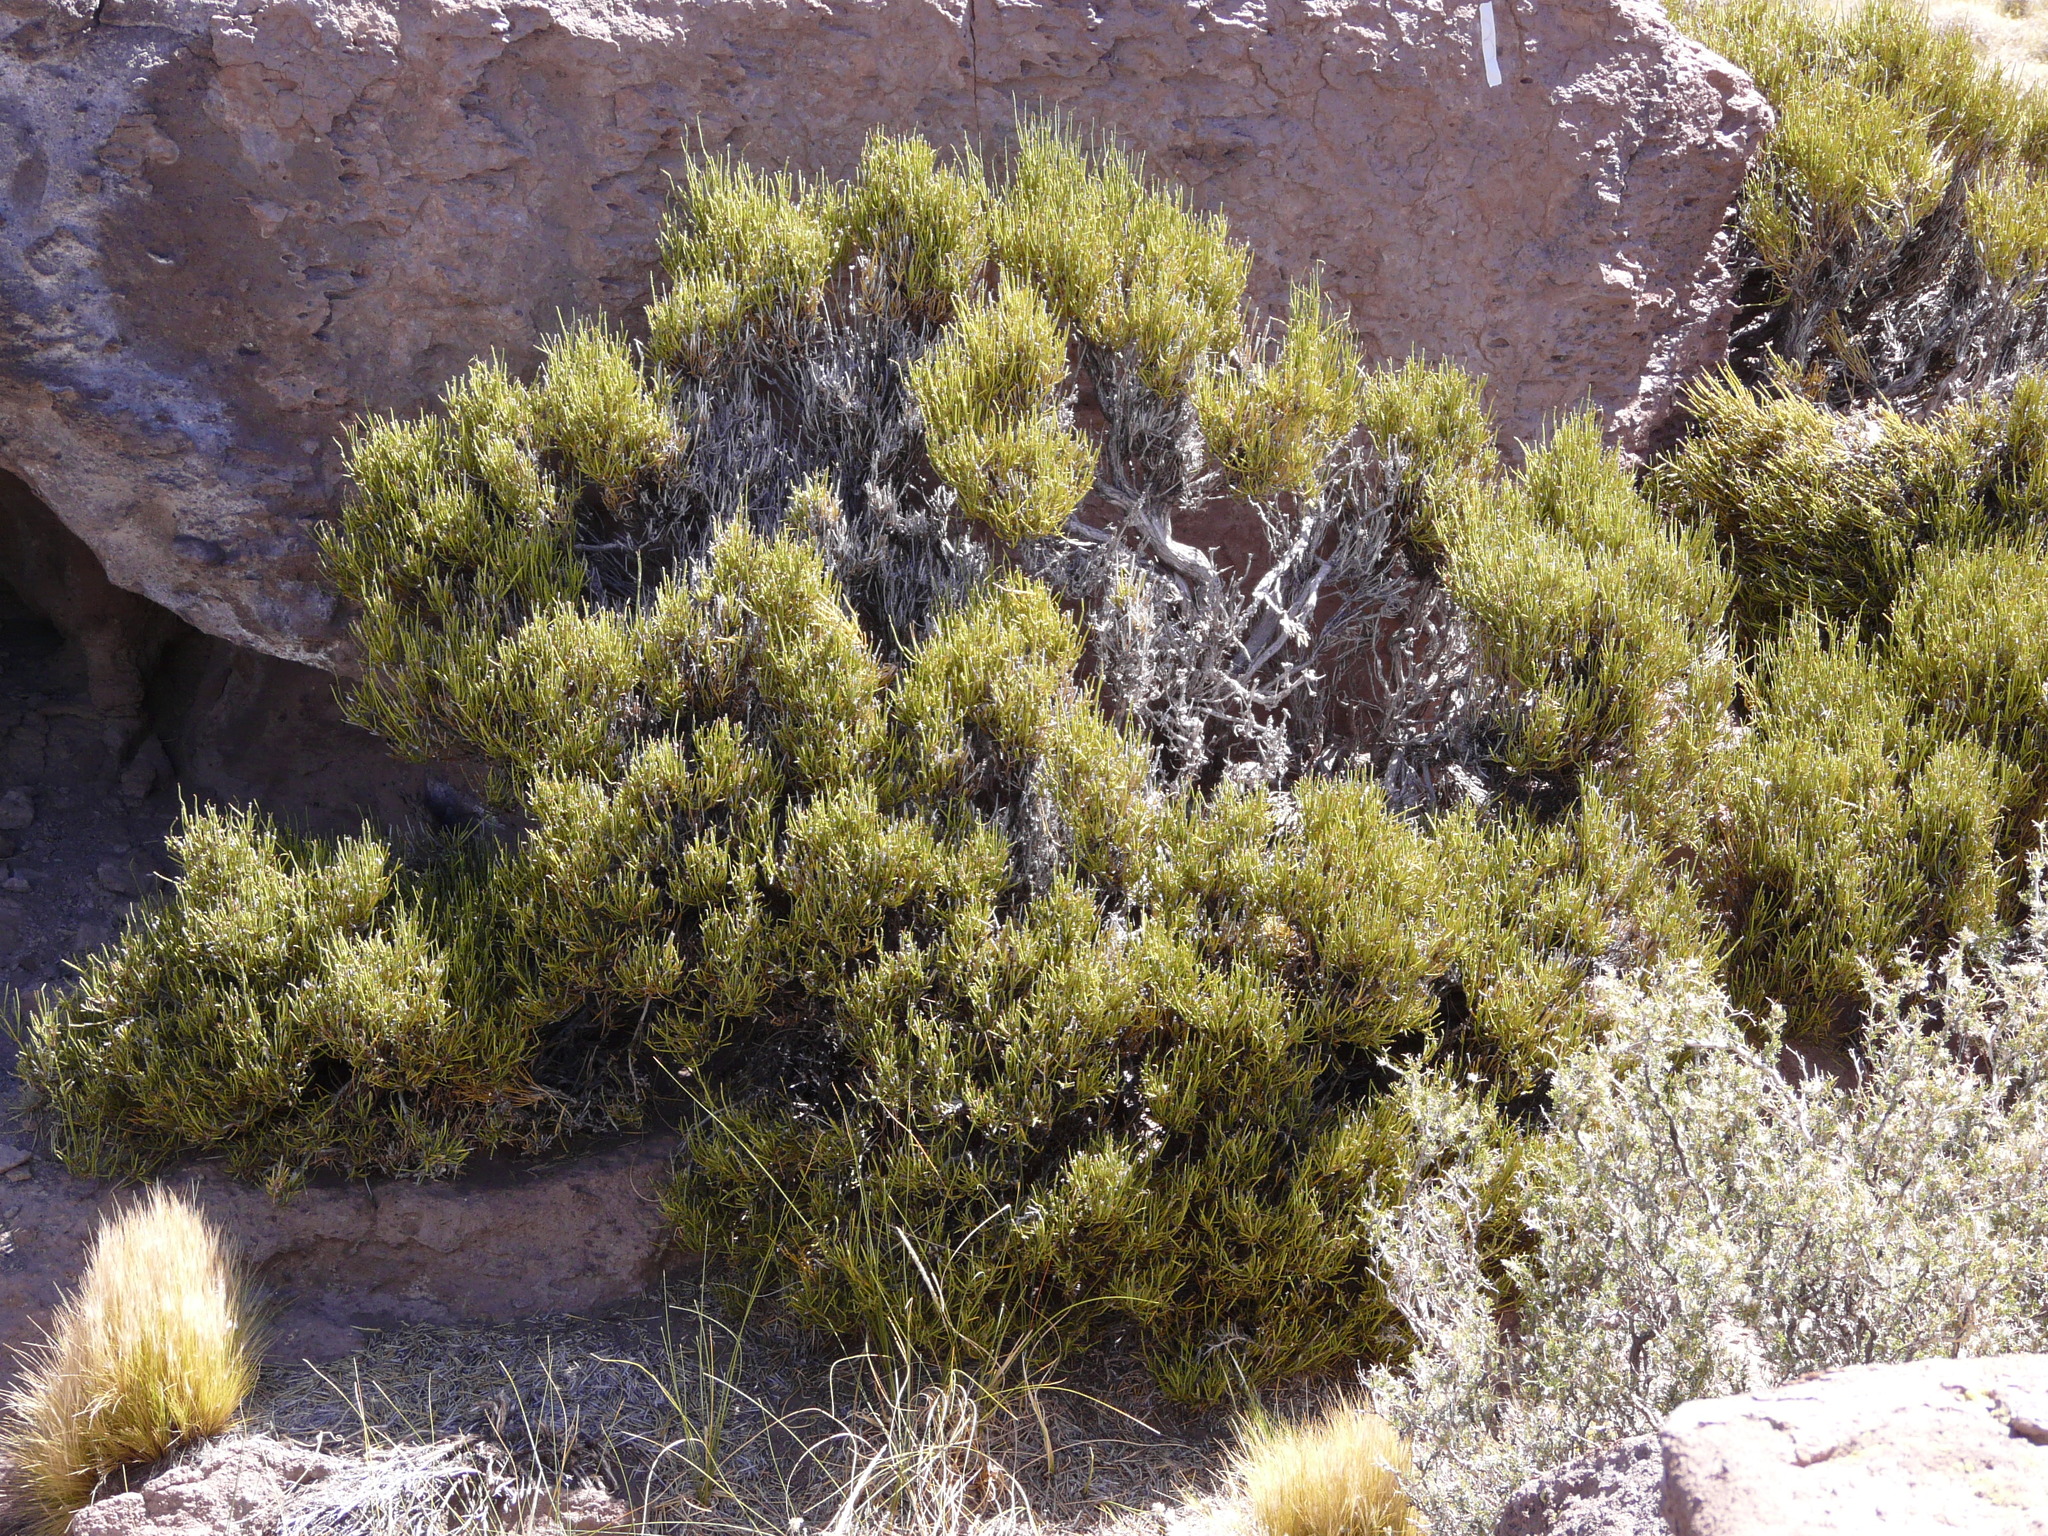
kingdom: Plantae
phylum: Tracheophyta
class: Gnetopsida
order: Ephedrales
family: Ephedraceae
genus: Ephedra
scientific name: Ephedra chilensis
